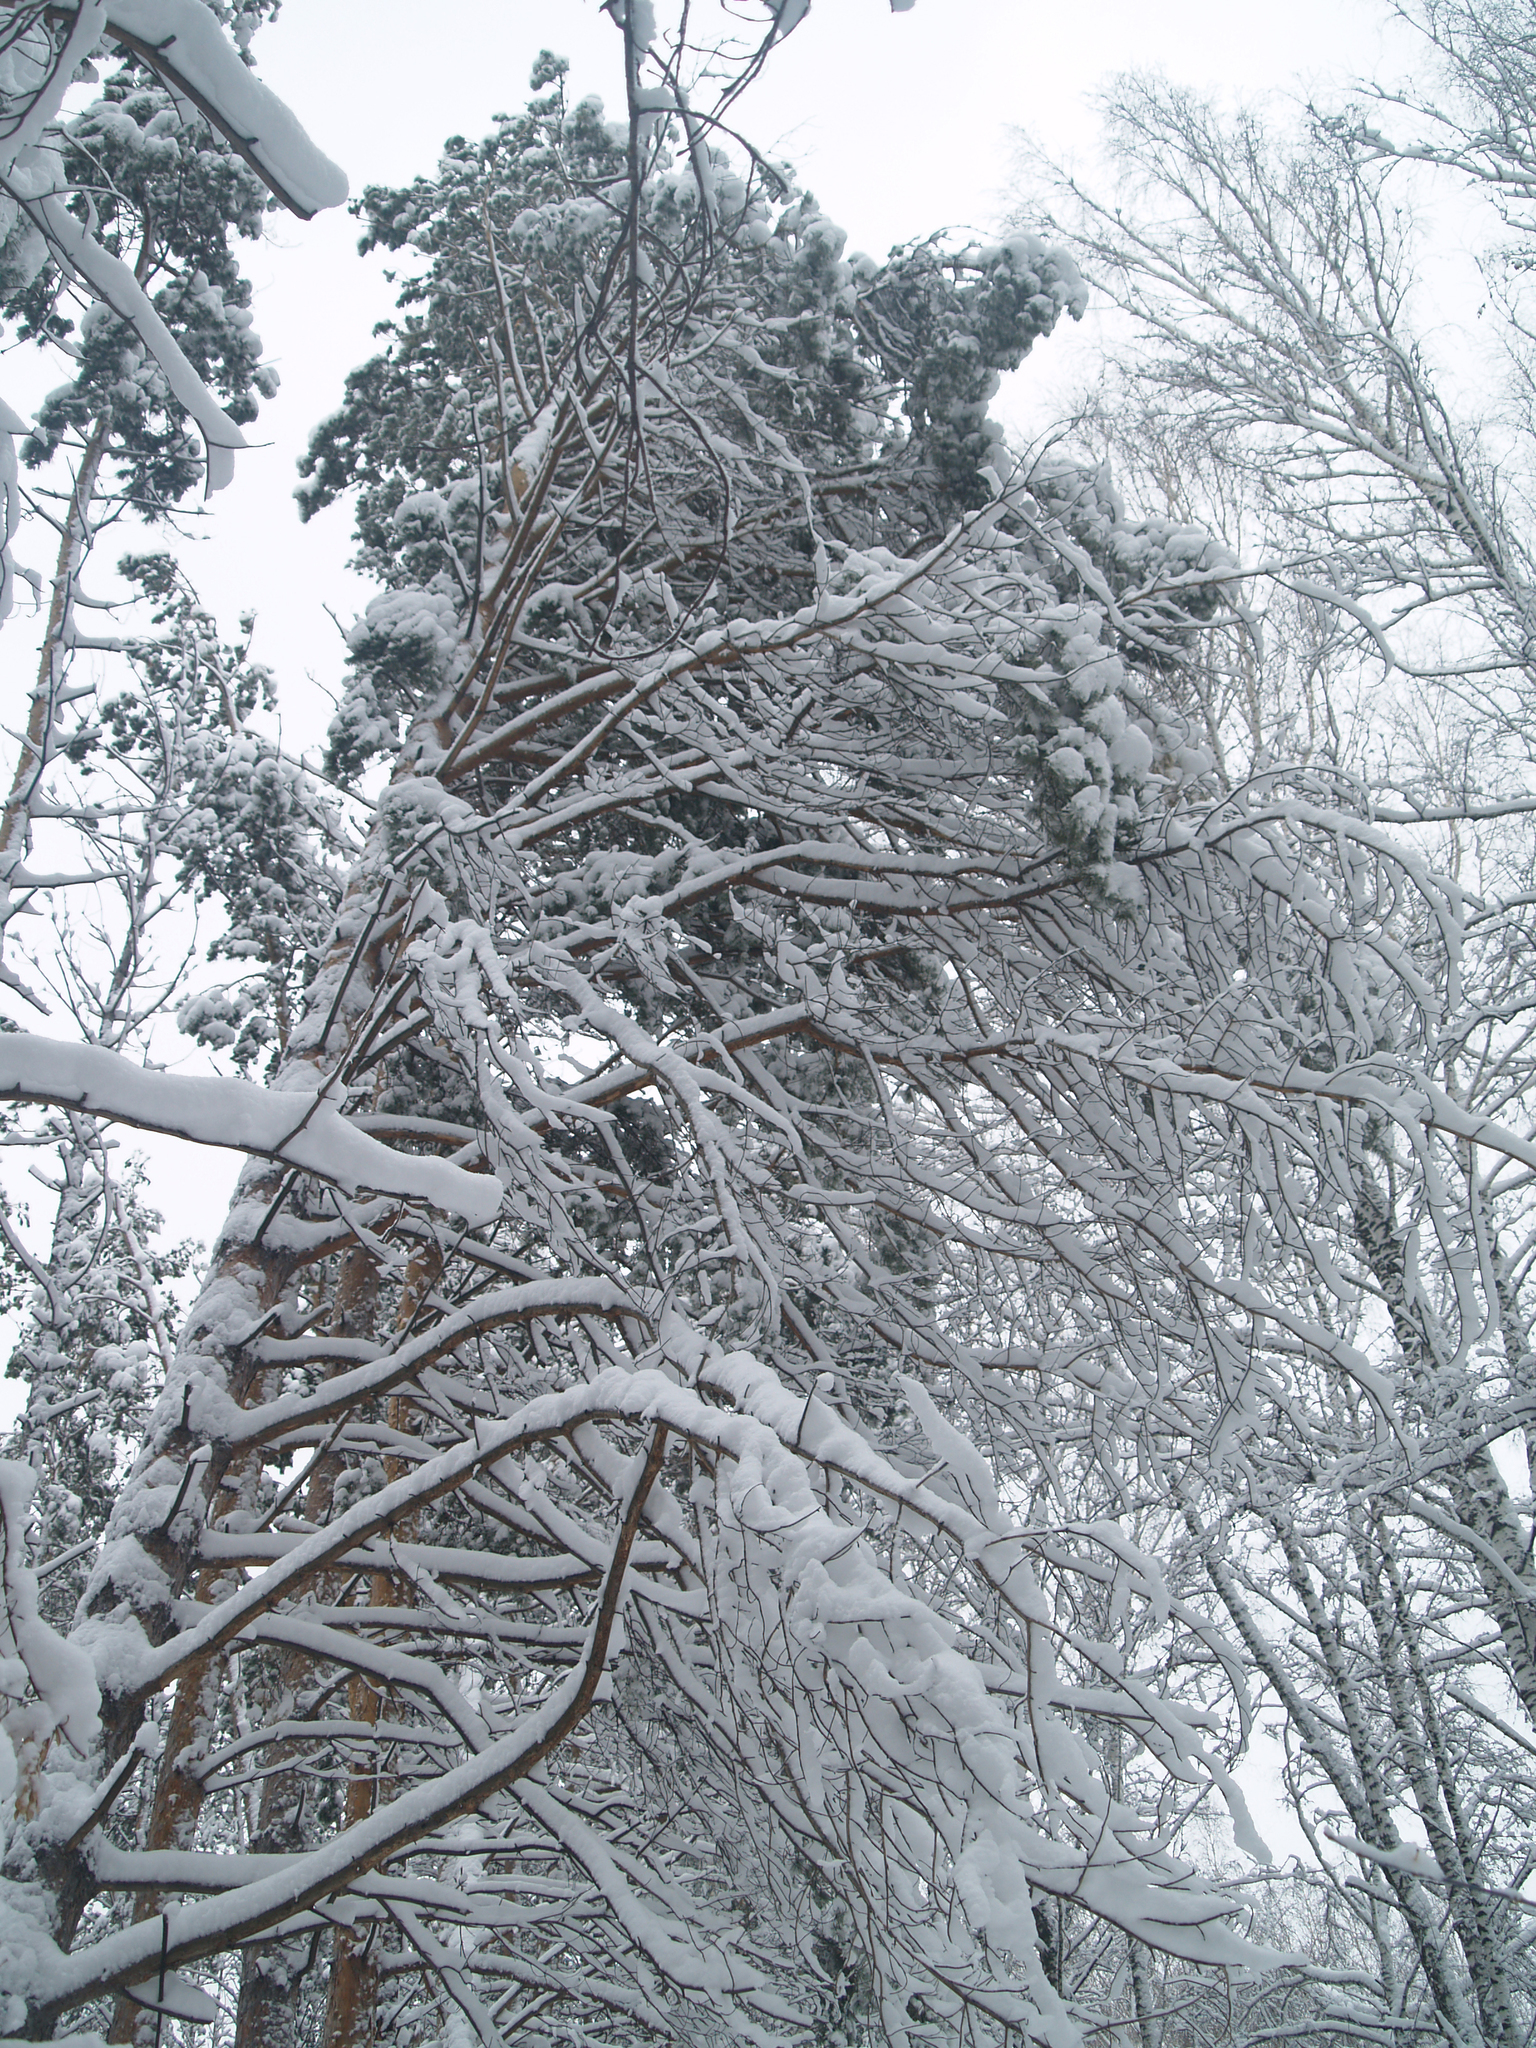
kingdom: Plantae
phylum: Tracheophyta
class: Pinopsida
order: Pinales
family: Pinaceae
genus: Pinus
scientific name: Pinus sylvestris
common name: Scots pine
